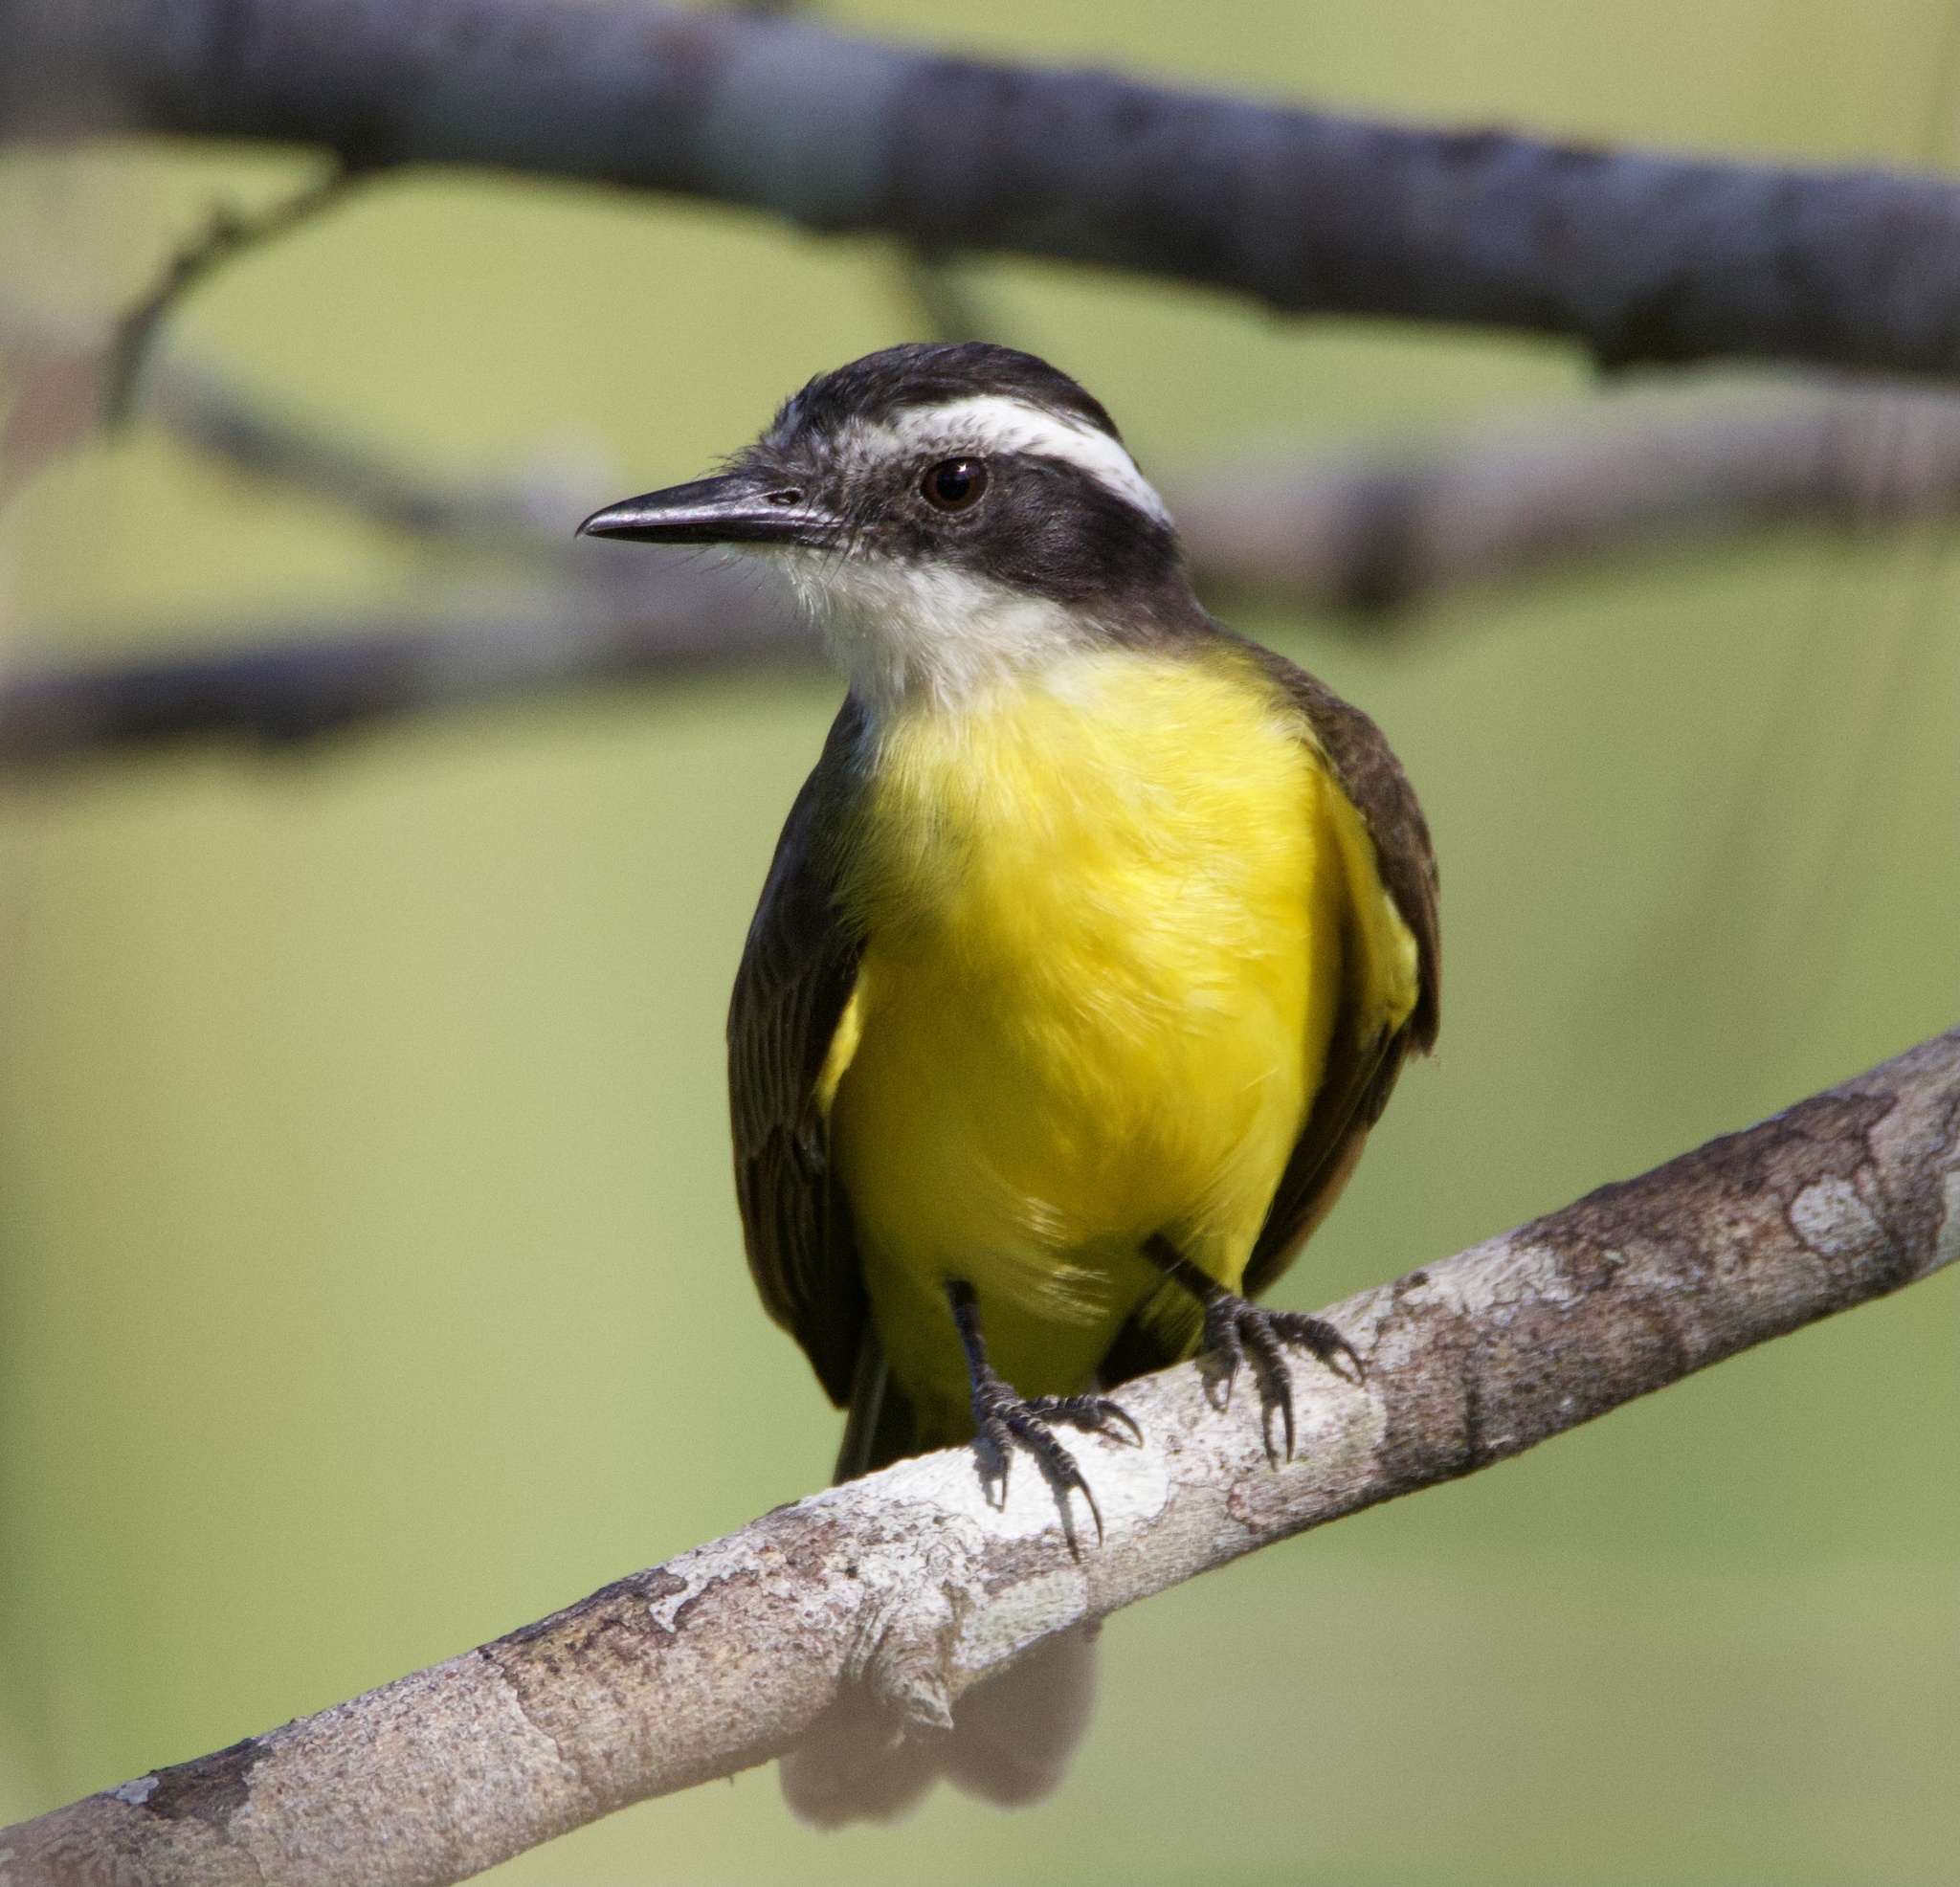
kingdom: Animalia
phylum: Chordata
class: Aves
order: Passeriformes
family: Tyrannidae
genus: Pitangus
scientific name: Pitangus lictor
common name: Lesser kiskadee
